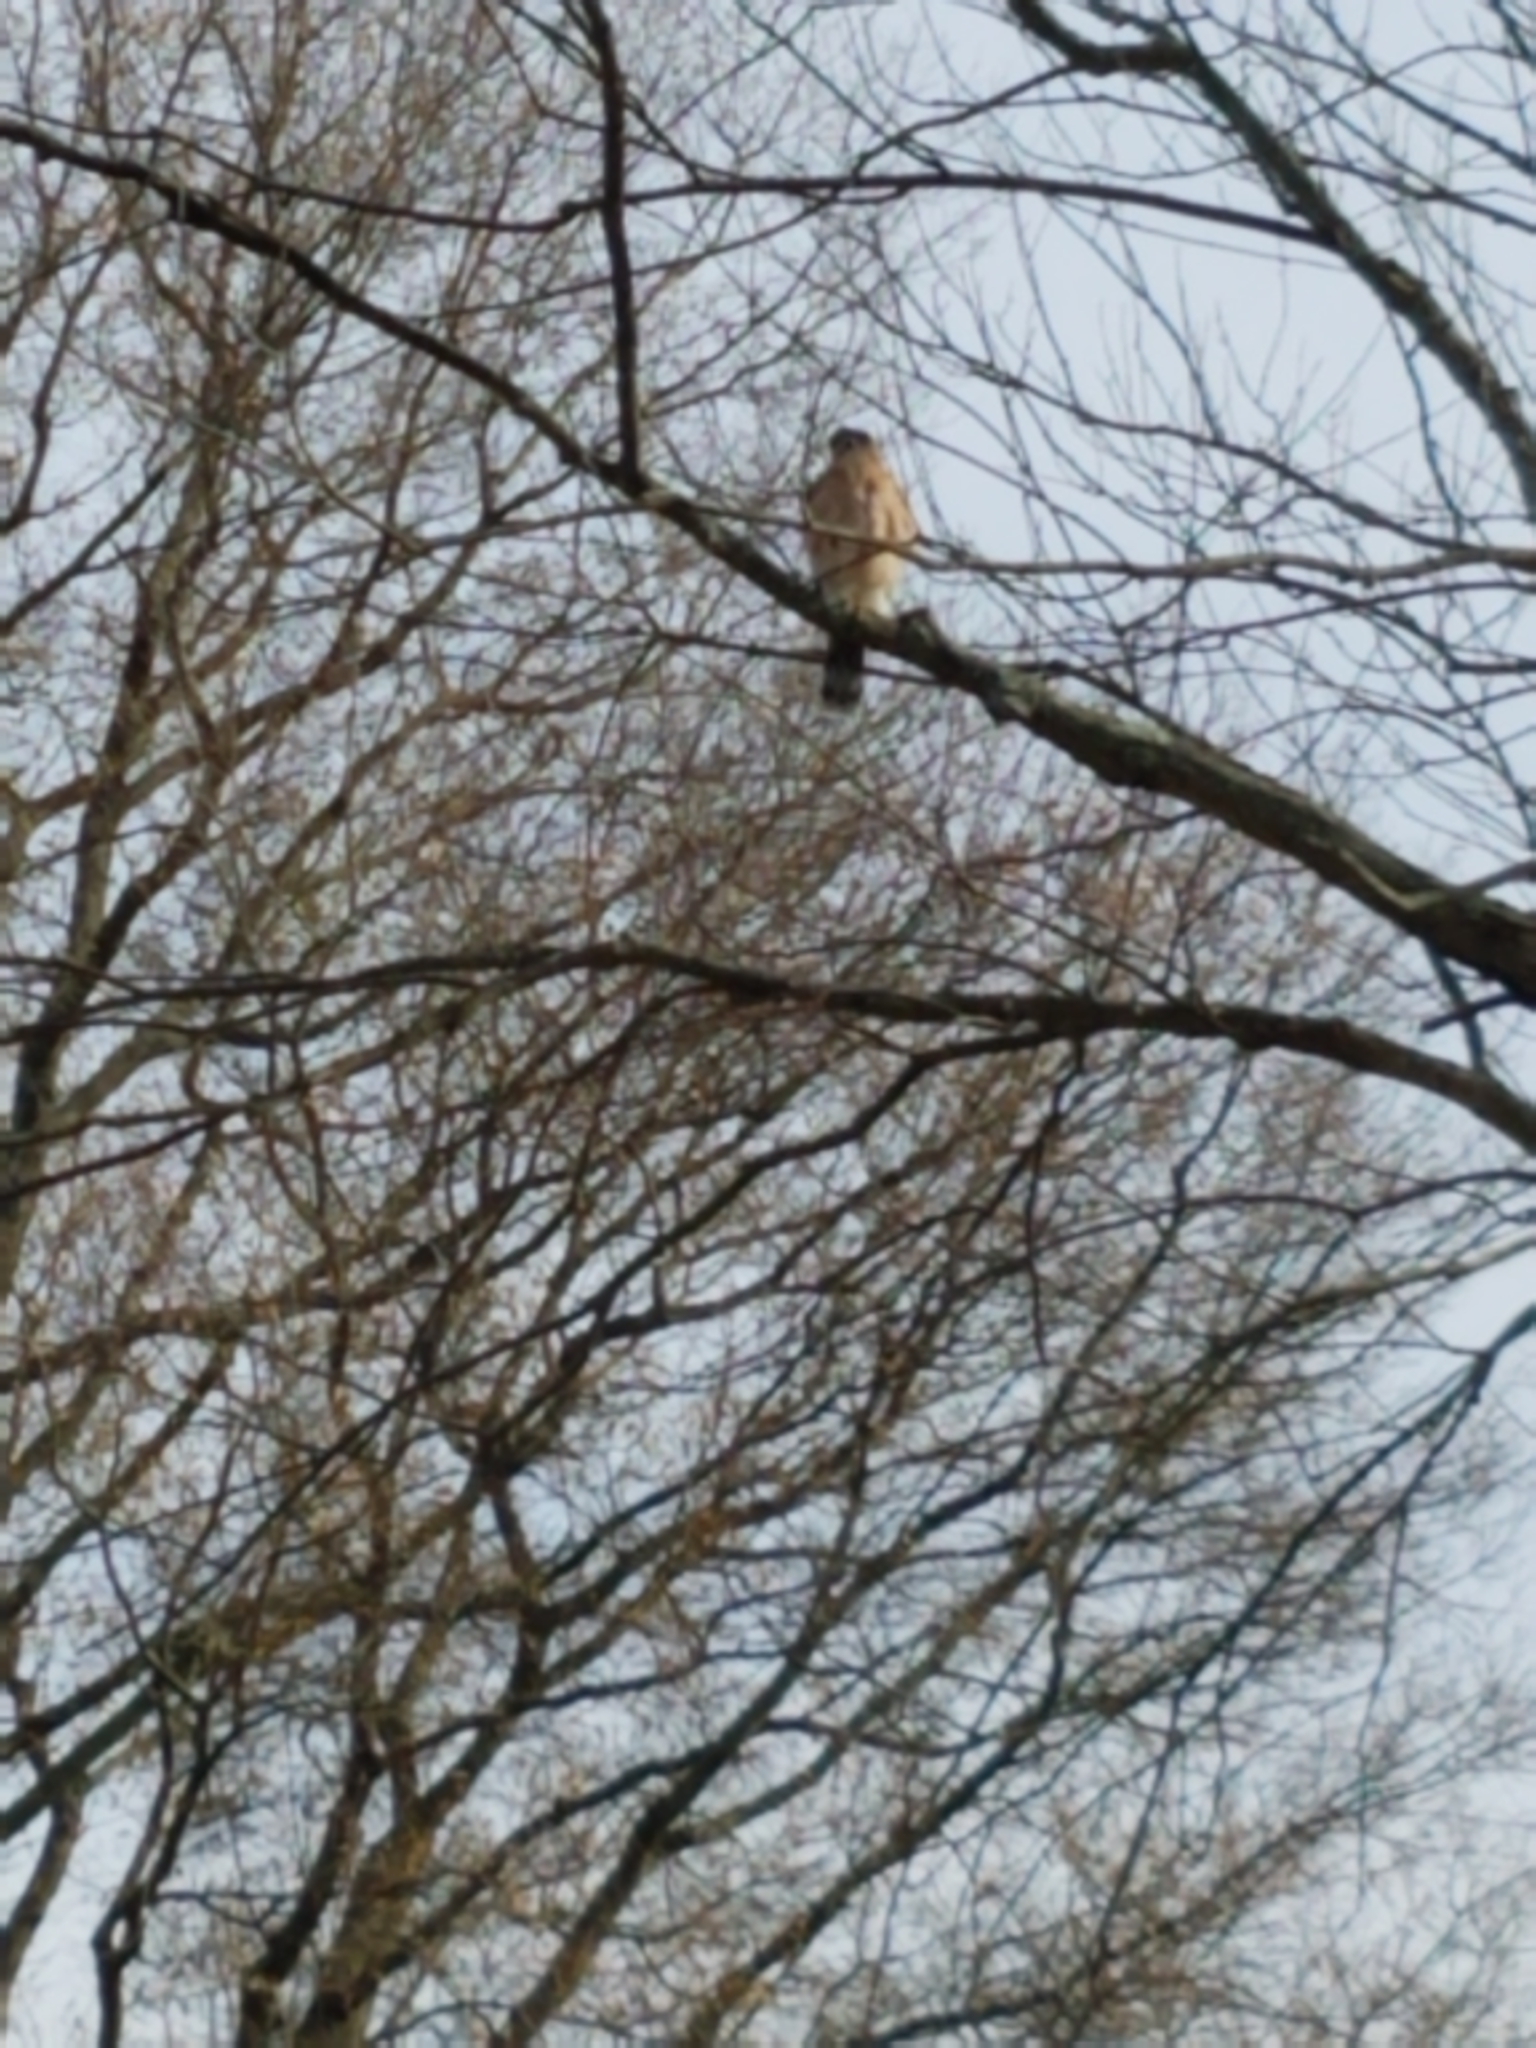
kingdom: Animalia
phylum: Chordata
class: Aves
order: Accipitriformes
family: Accipitridae
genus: Accipiter
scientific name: Accipiter cooperii
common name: Cooper's hawk
